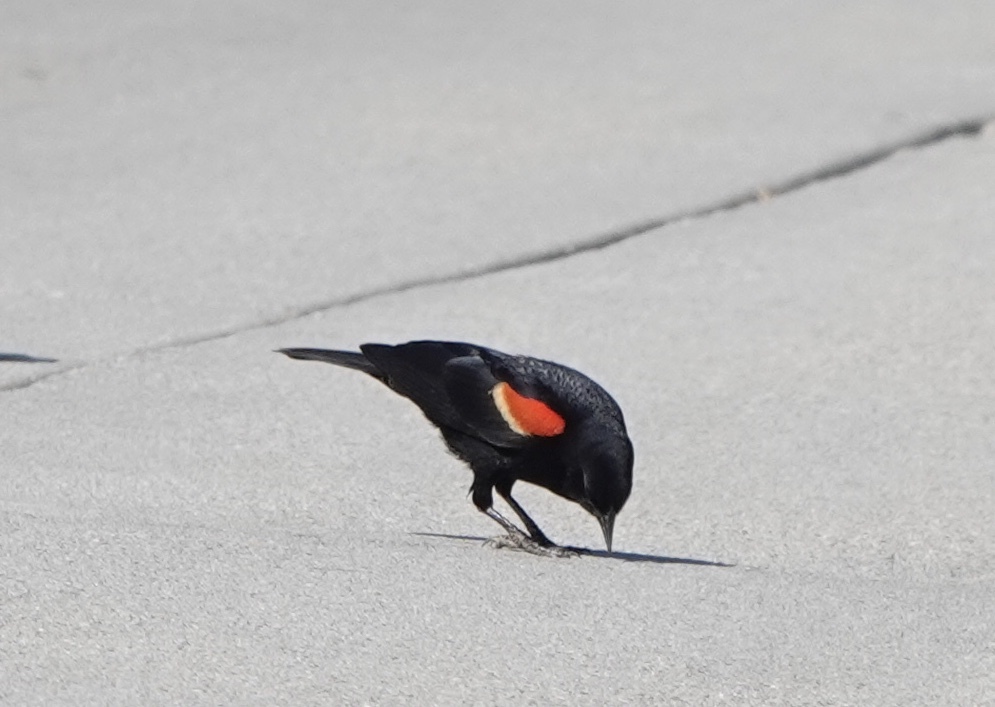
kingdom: Animalia
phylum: Chordata
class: Aves
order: Passeriformes
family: Icteridae
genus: Agelaius
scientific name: Agelaius phoeniceus
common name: Red-winged blackbird
